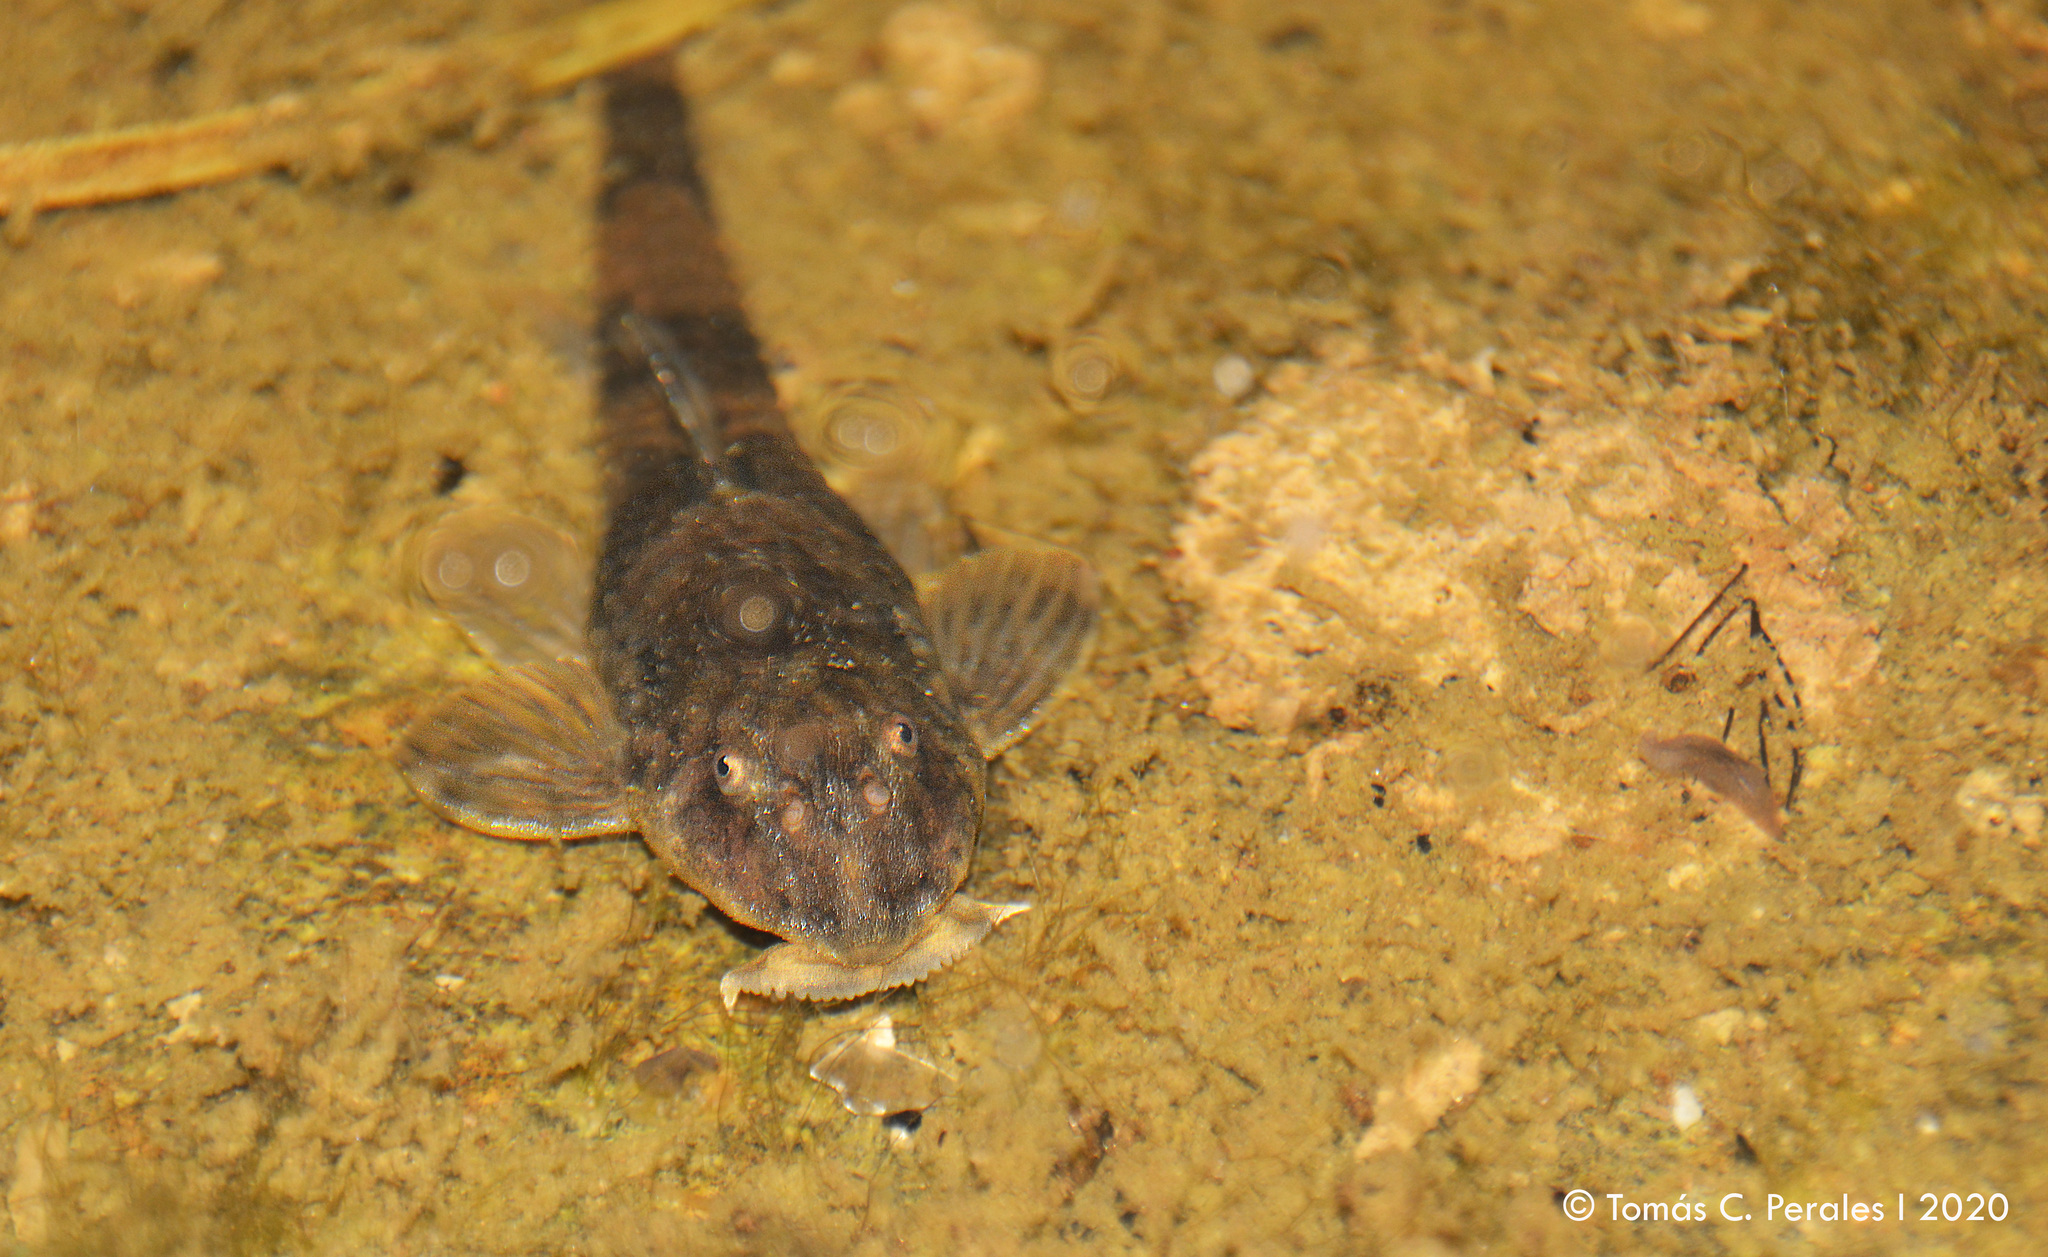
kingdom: Animalia
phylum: Chordata
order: Siluriformes
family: Loricariidae
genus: Rineloricaria
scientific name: Rineloricaria catamarcensis
